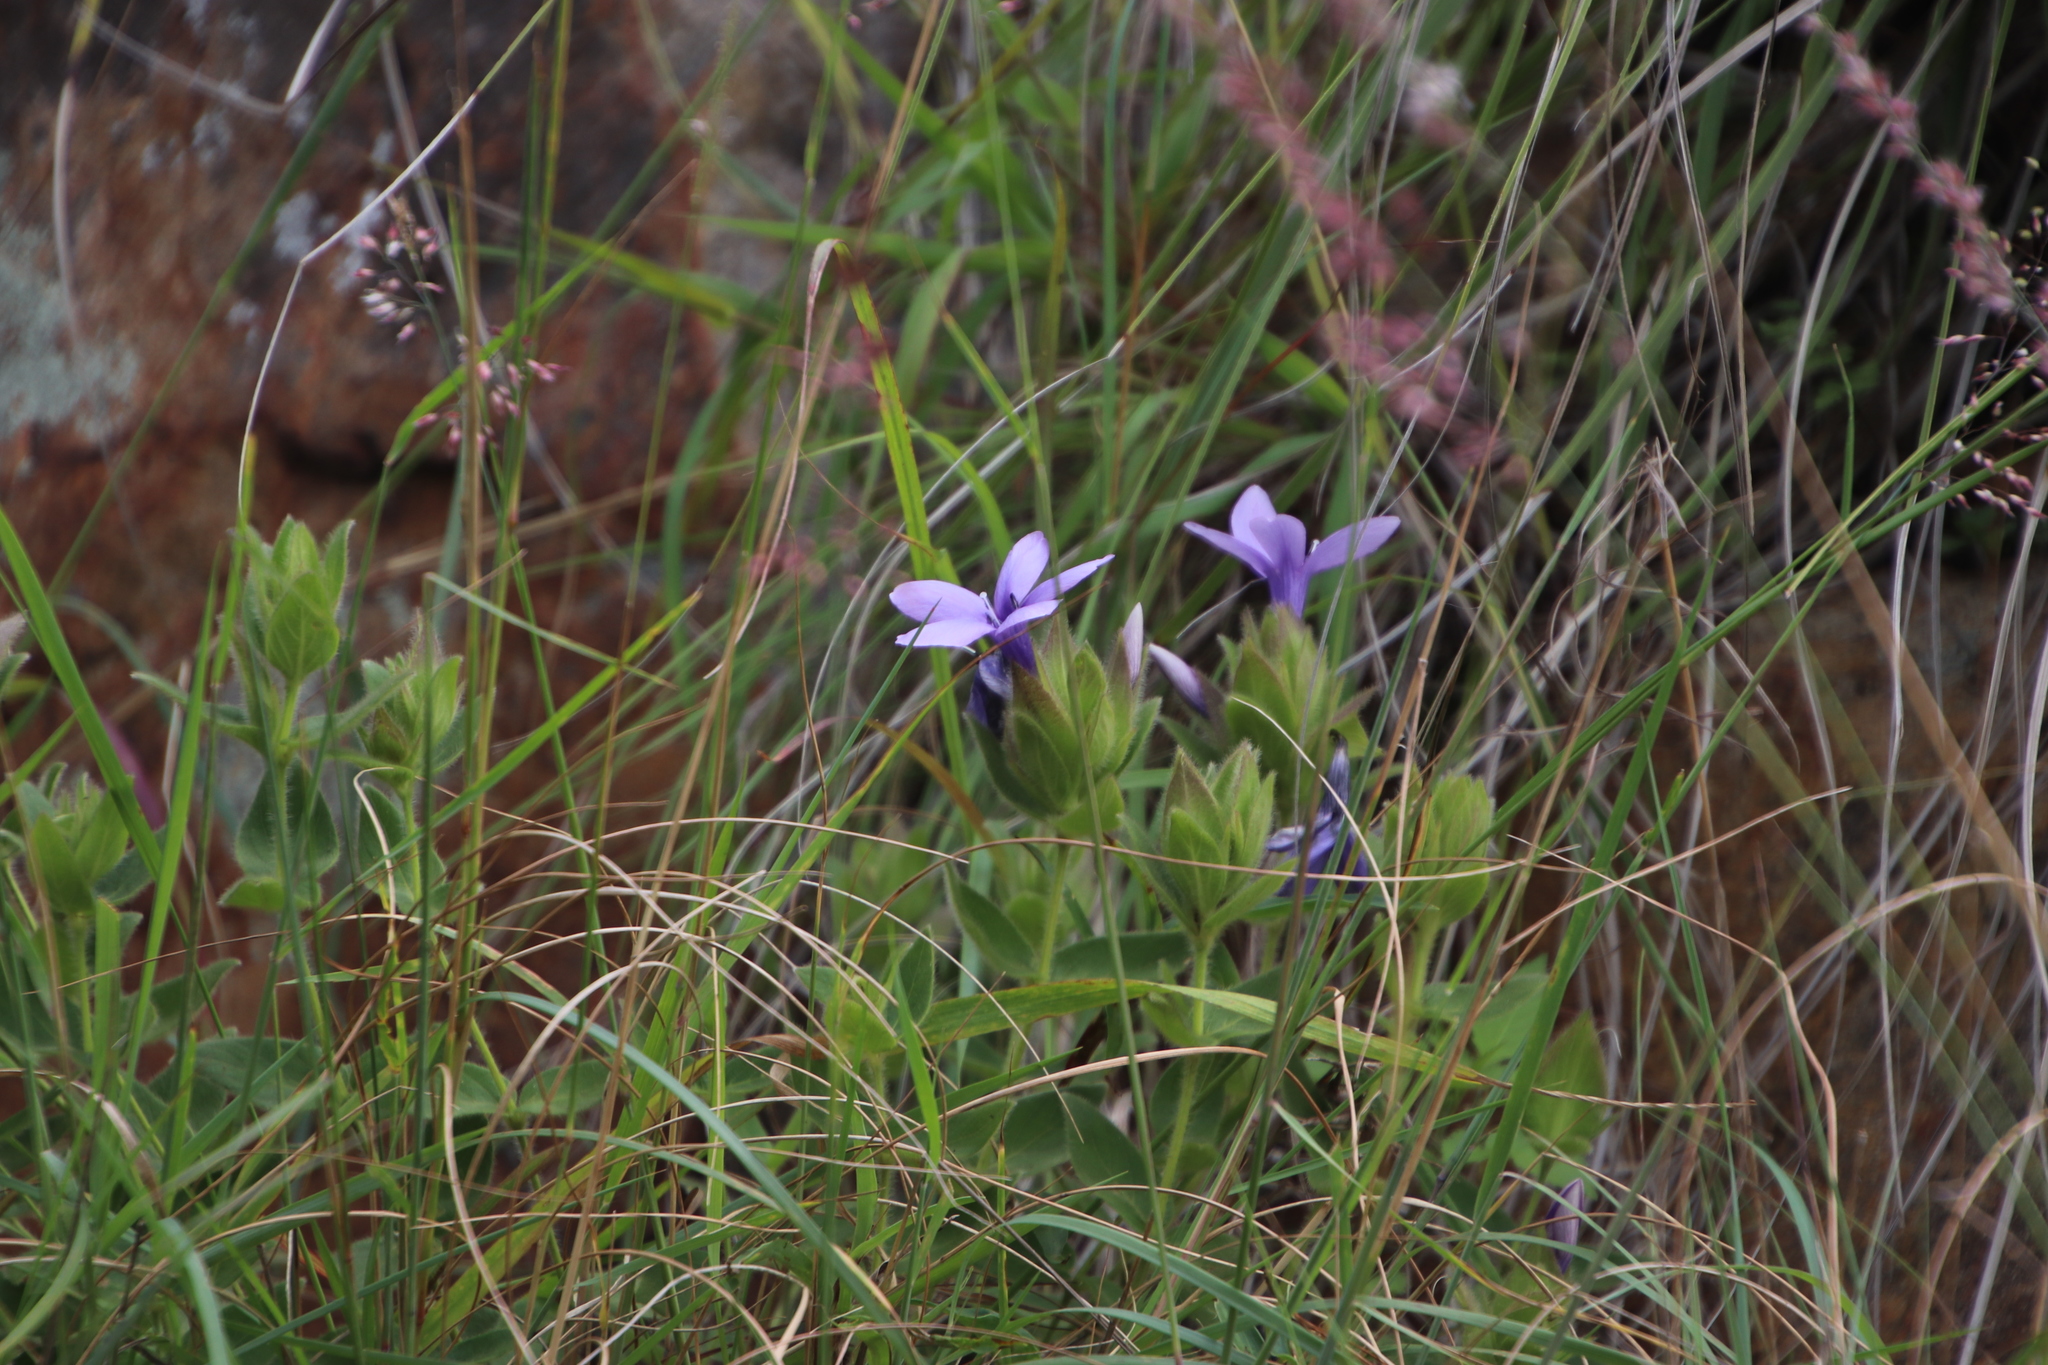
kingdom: Plantae
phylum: Tracheophyta
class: Magnoliopsida
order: Lamiales
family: Acanthaceae
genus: Barleria
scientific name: Barleria ovata
